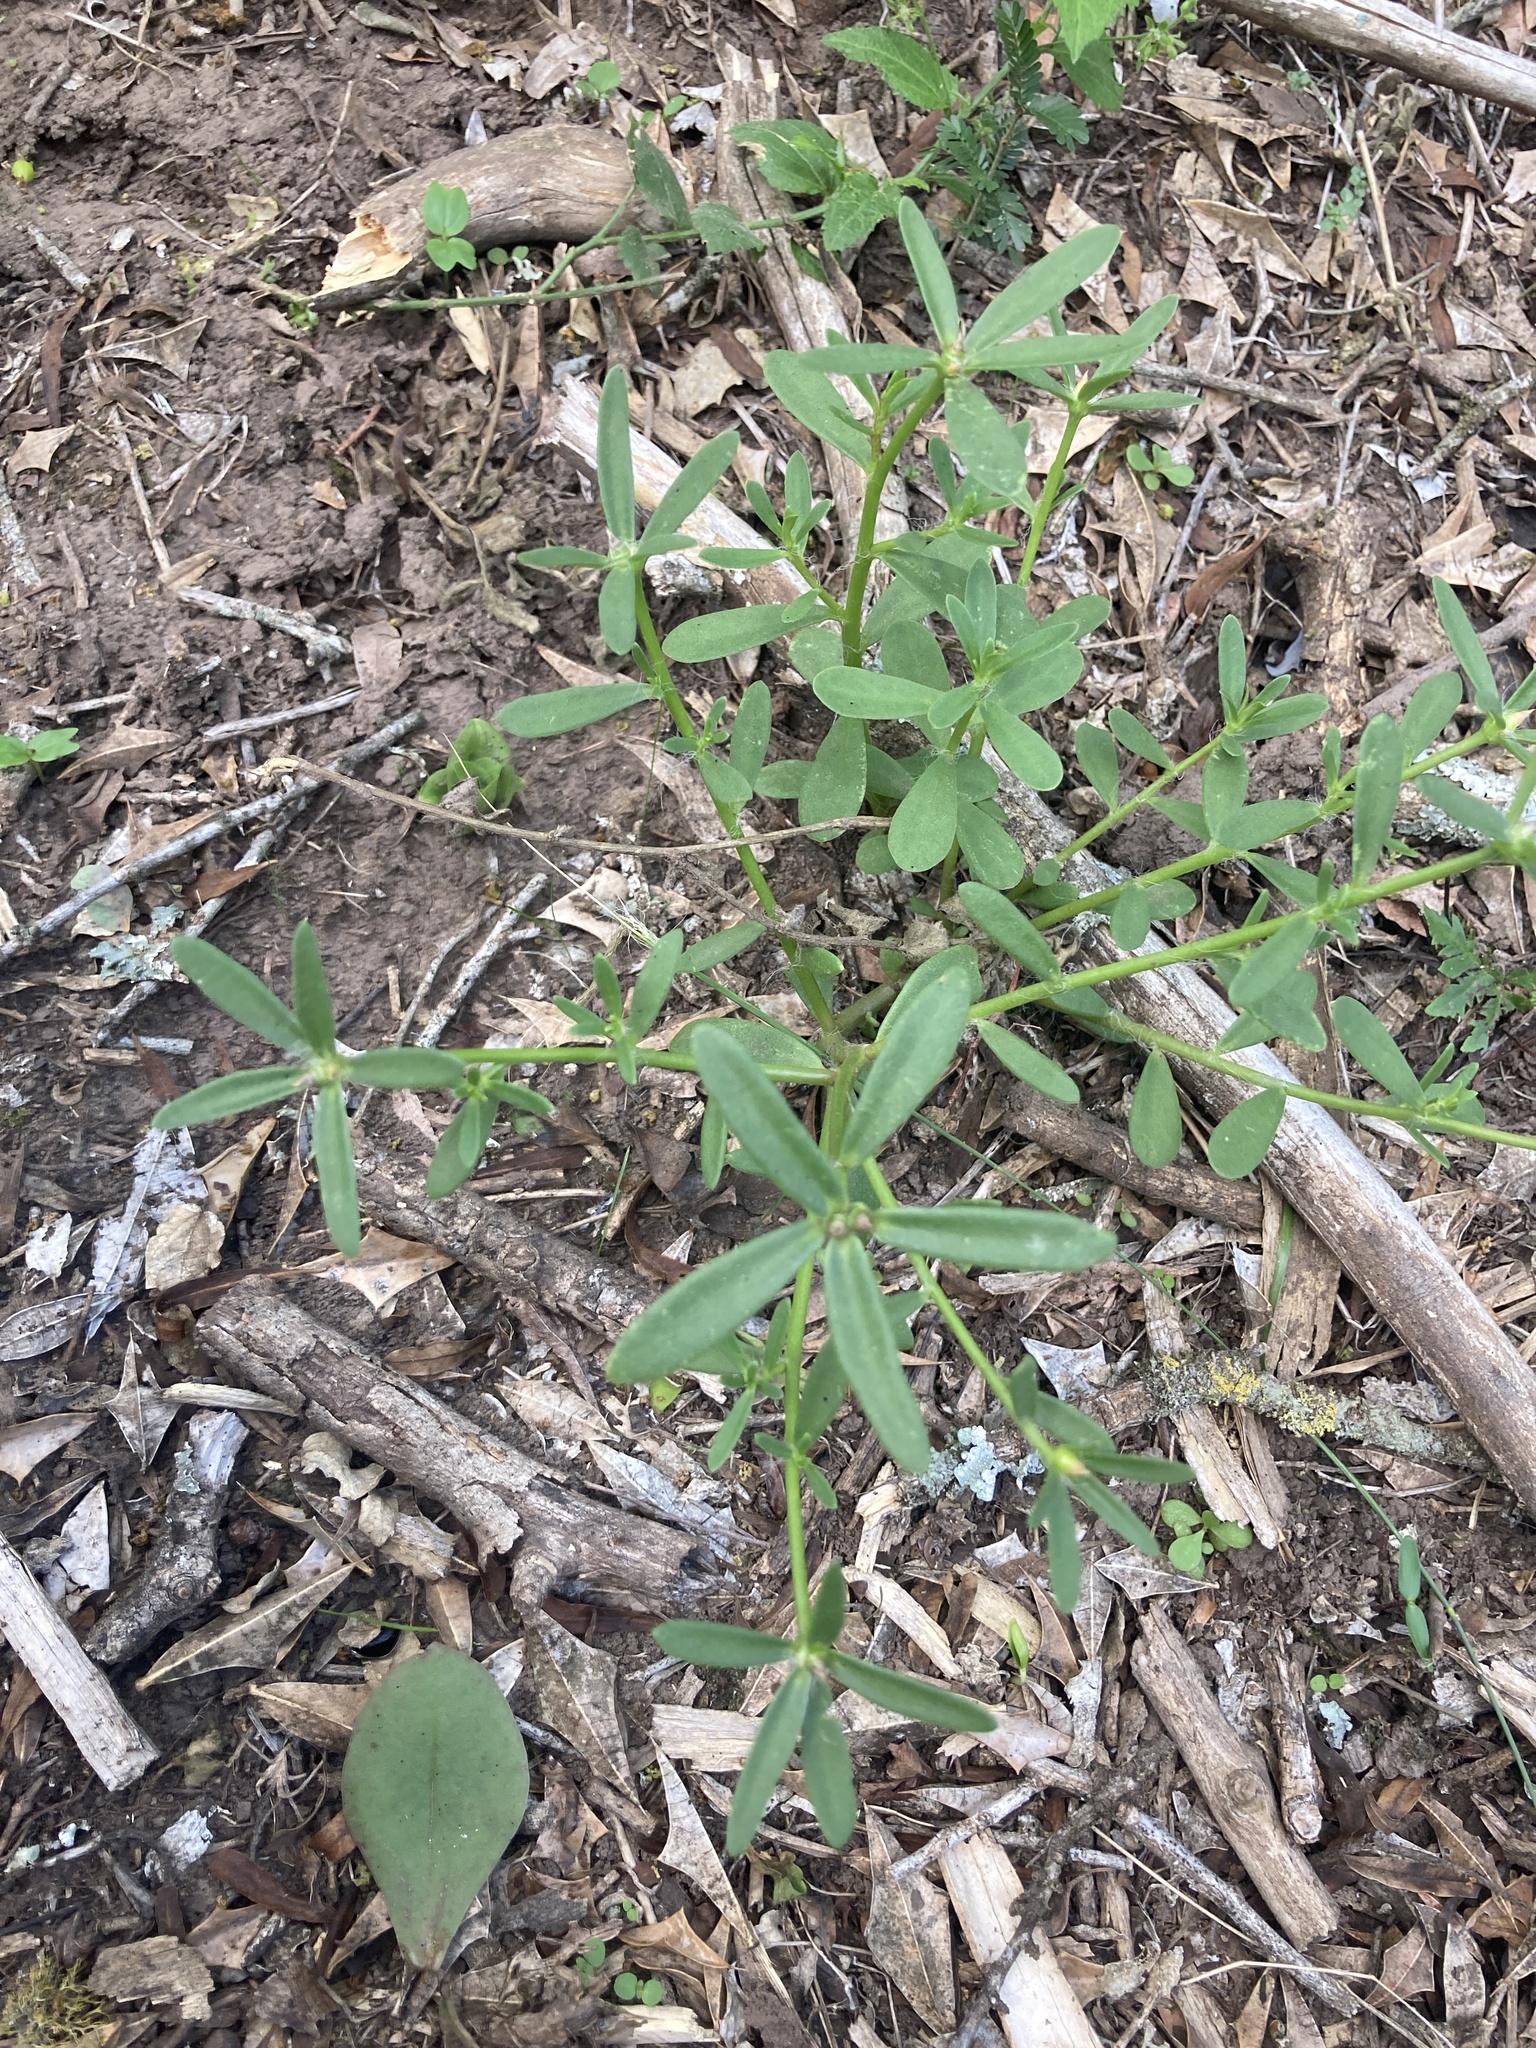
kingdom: Plantae
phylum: Tracheophyta
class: Magnoliopsida
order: Caryophyllales
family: Portulacaceae
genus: Portulaca
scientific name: Portulaca cryptopetala
